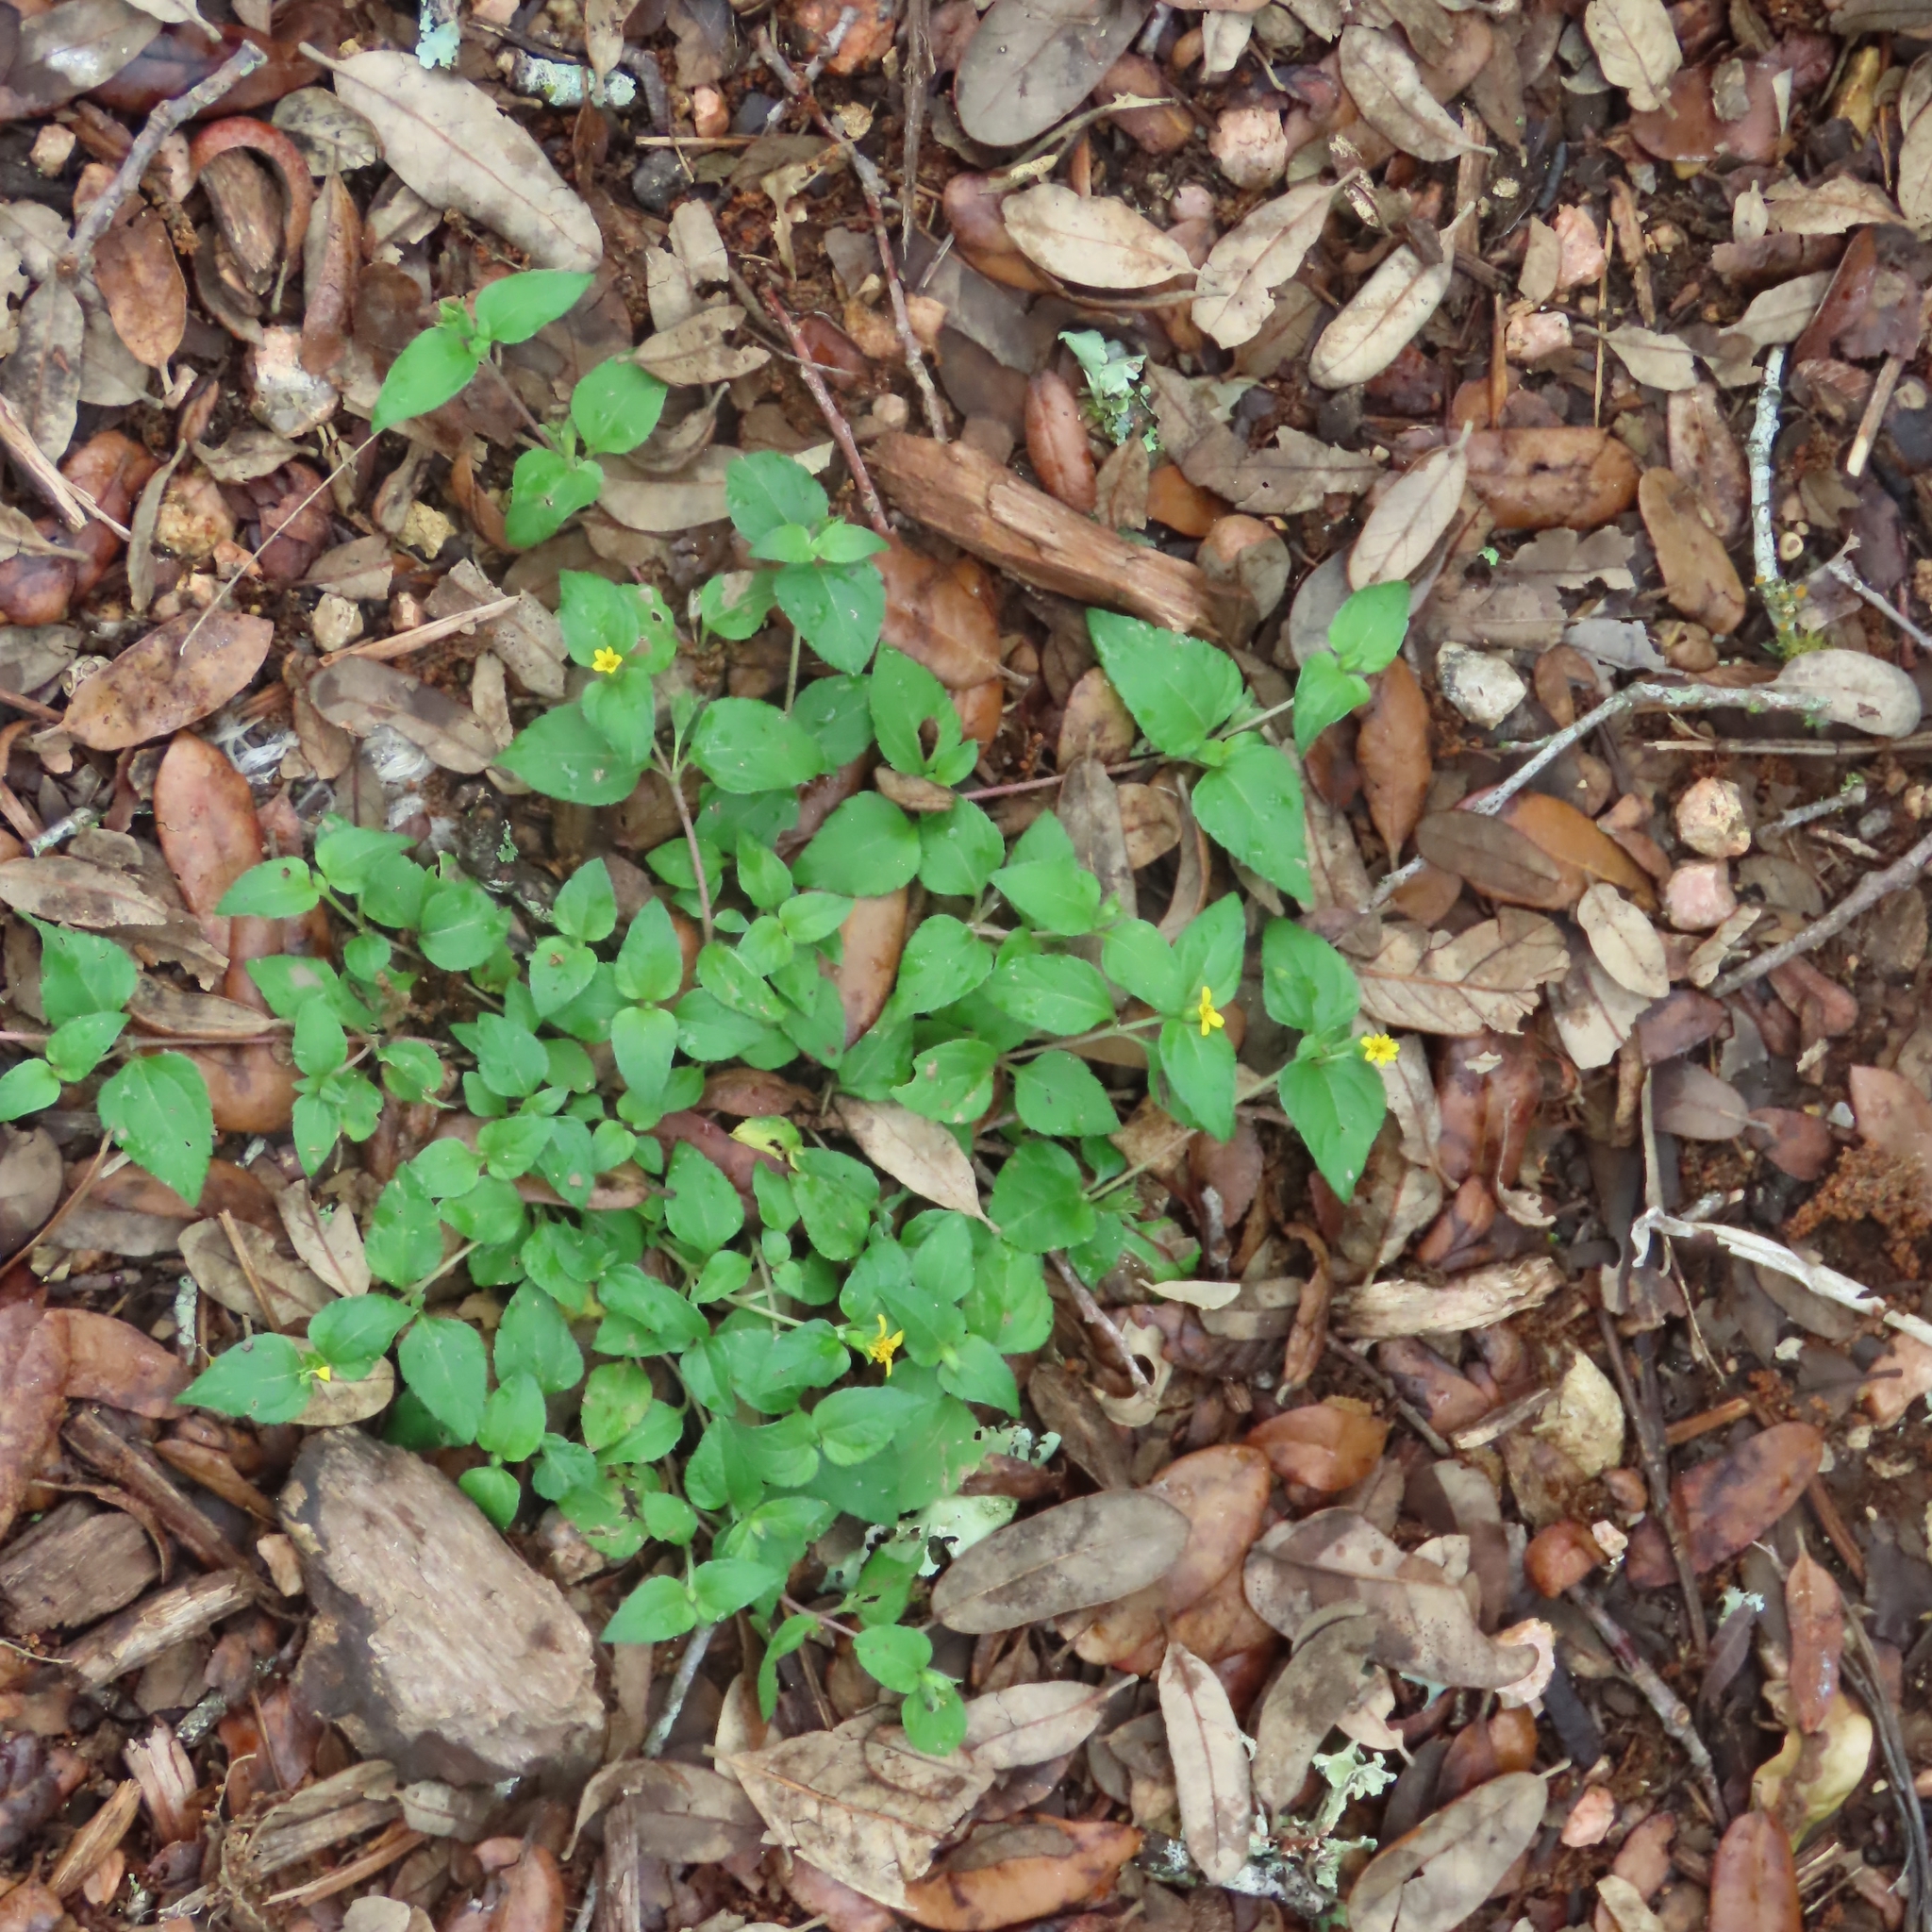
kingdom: Plantae
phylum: Tracheophyta
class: Magnoliopsida
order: Asterales
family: Asteraceae
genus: Calyptocarpus
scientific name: Calyptocarpus vialis
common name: Straggler daisy
